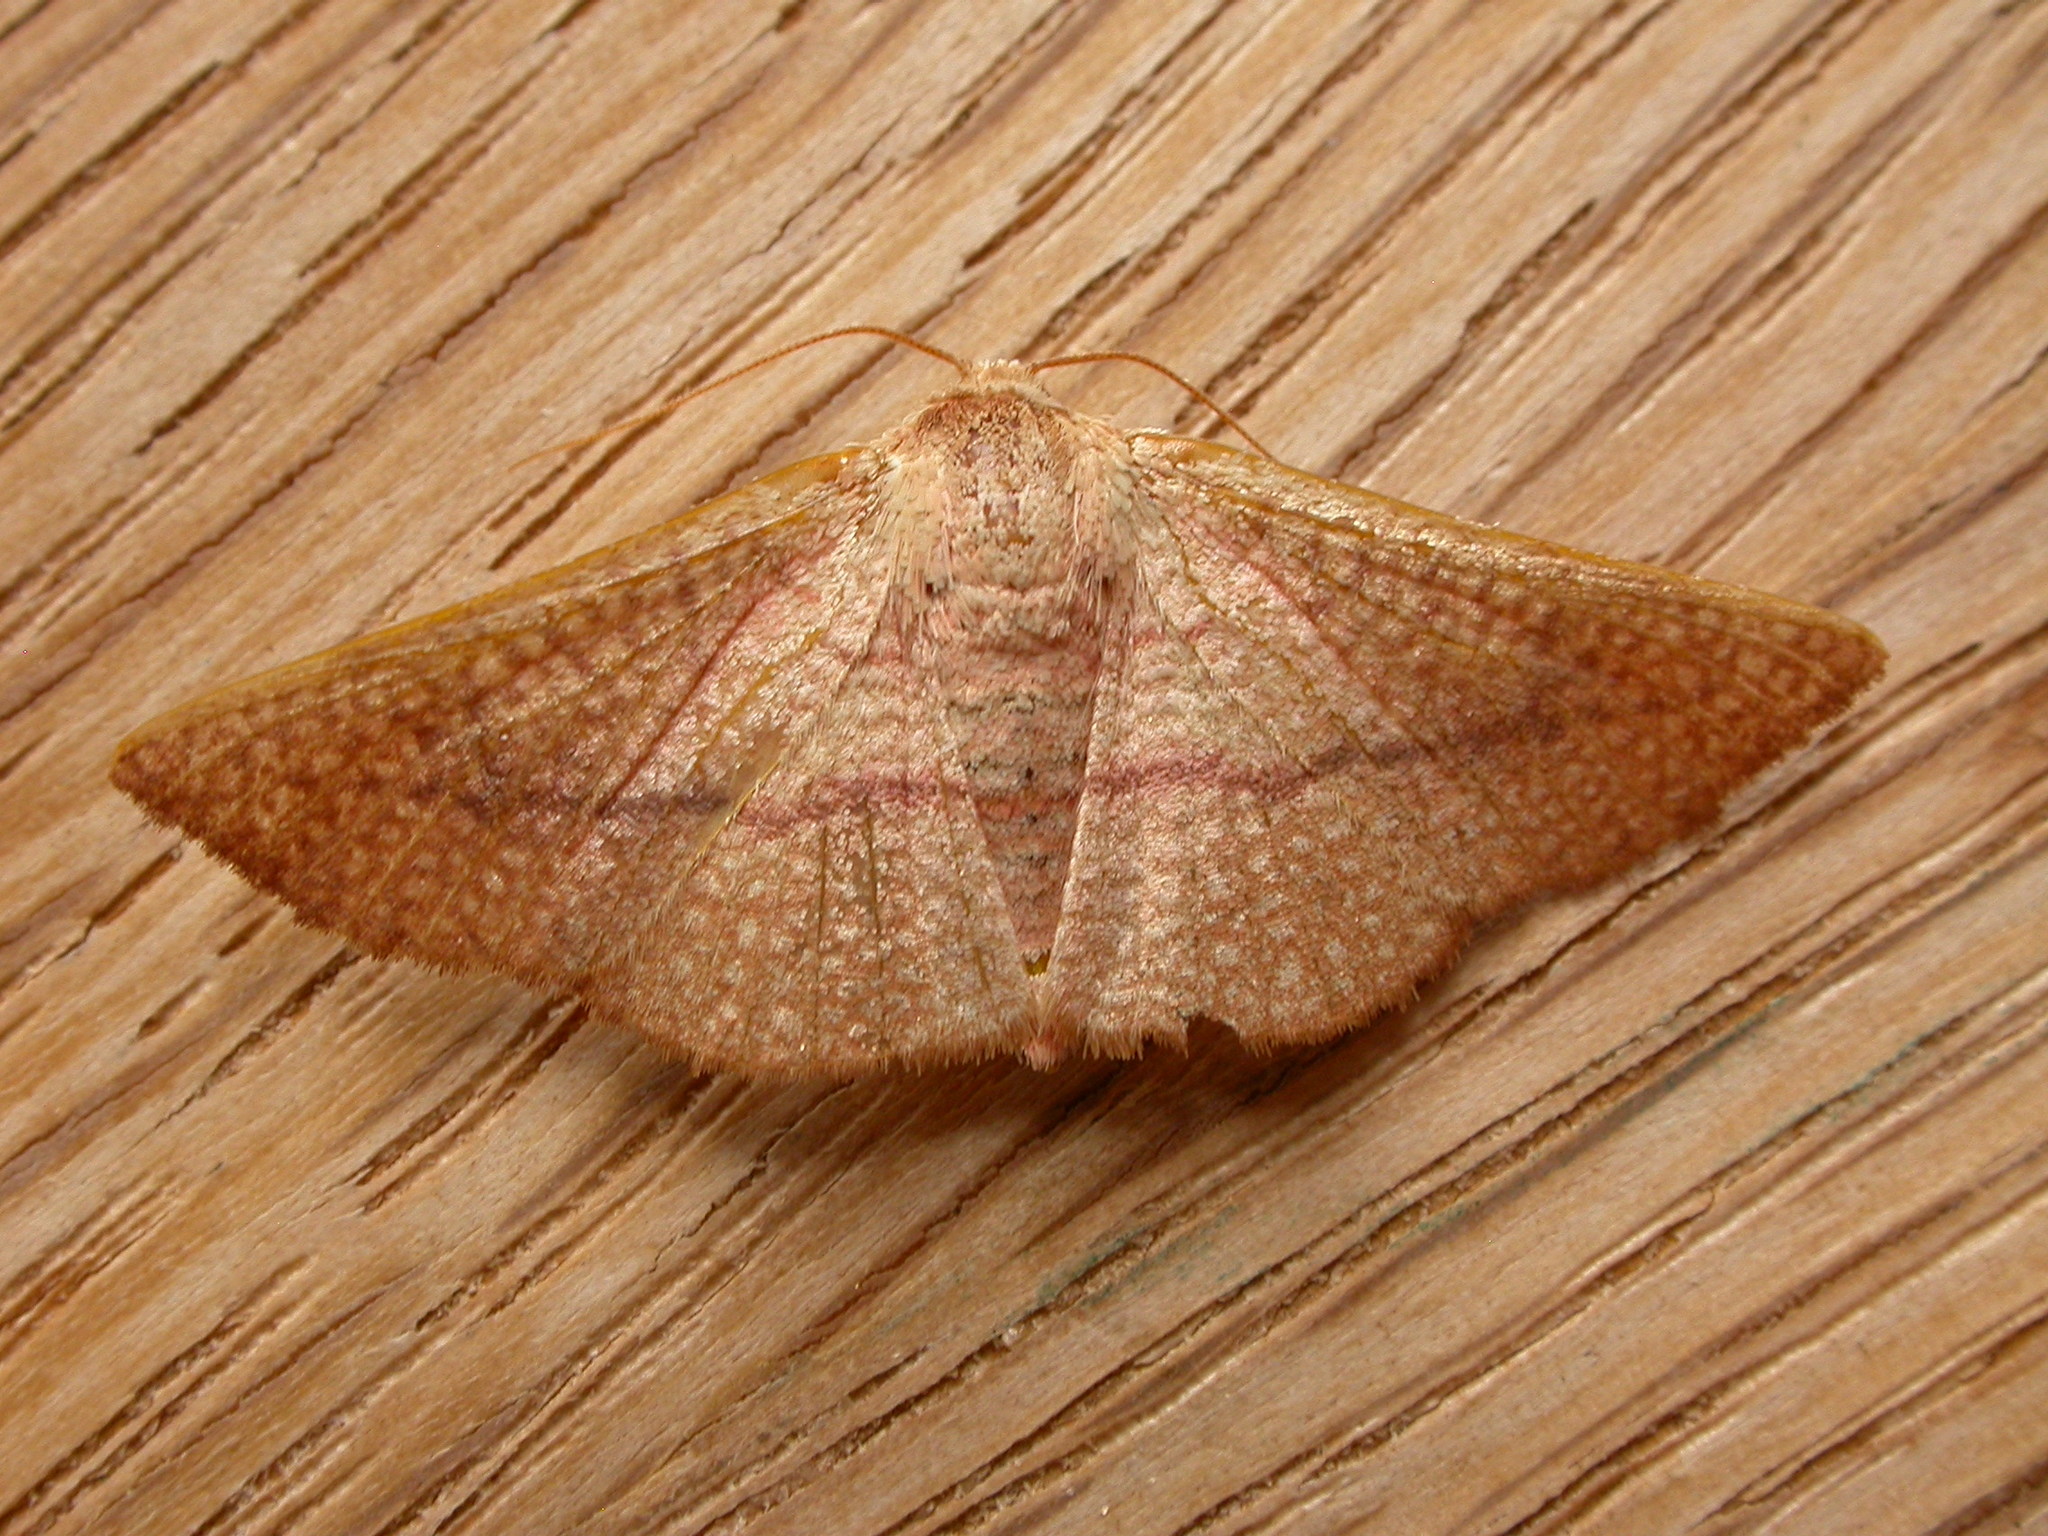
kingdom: Animalia
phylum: Arthropoda
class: Insecta
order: Lepidoptera
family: Thyrididae
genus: Aglaopus
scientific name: Aglaopus pyrrhata
